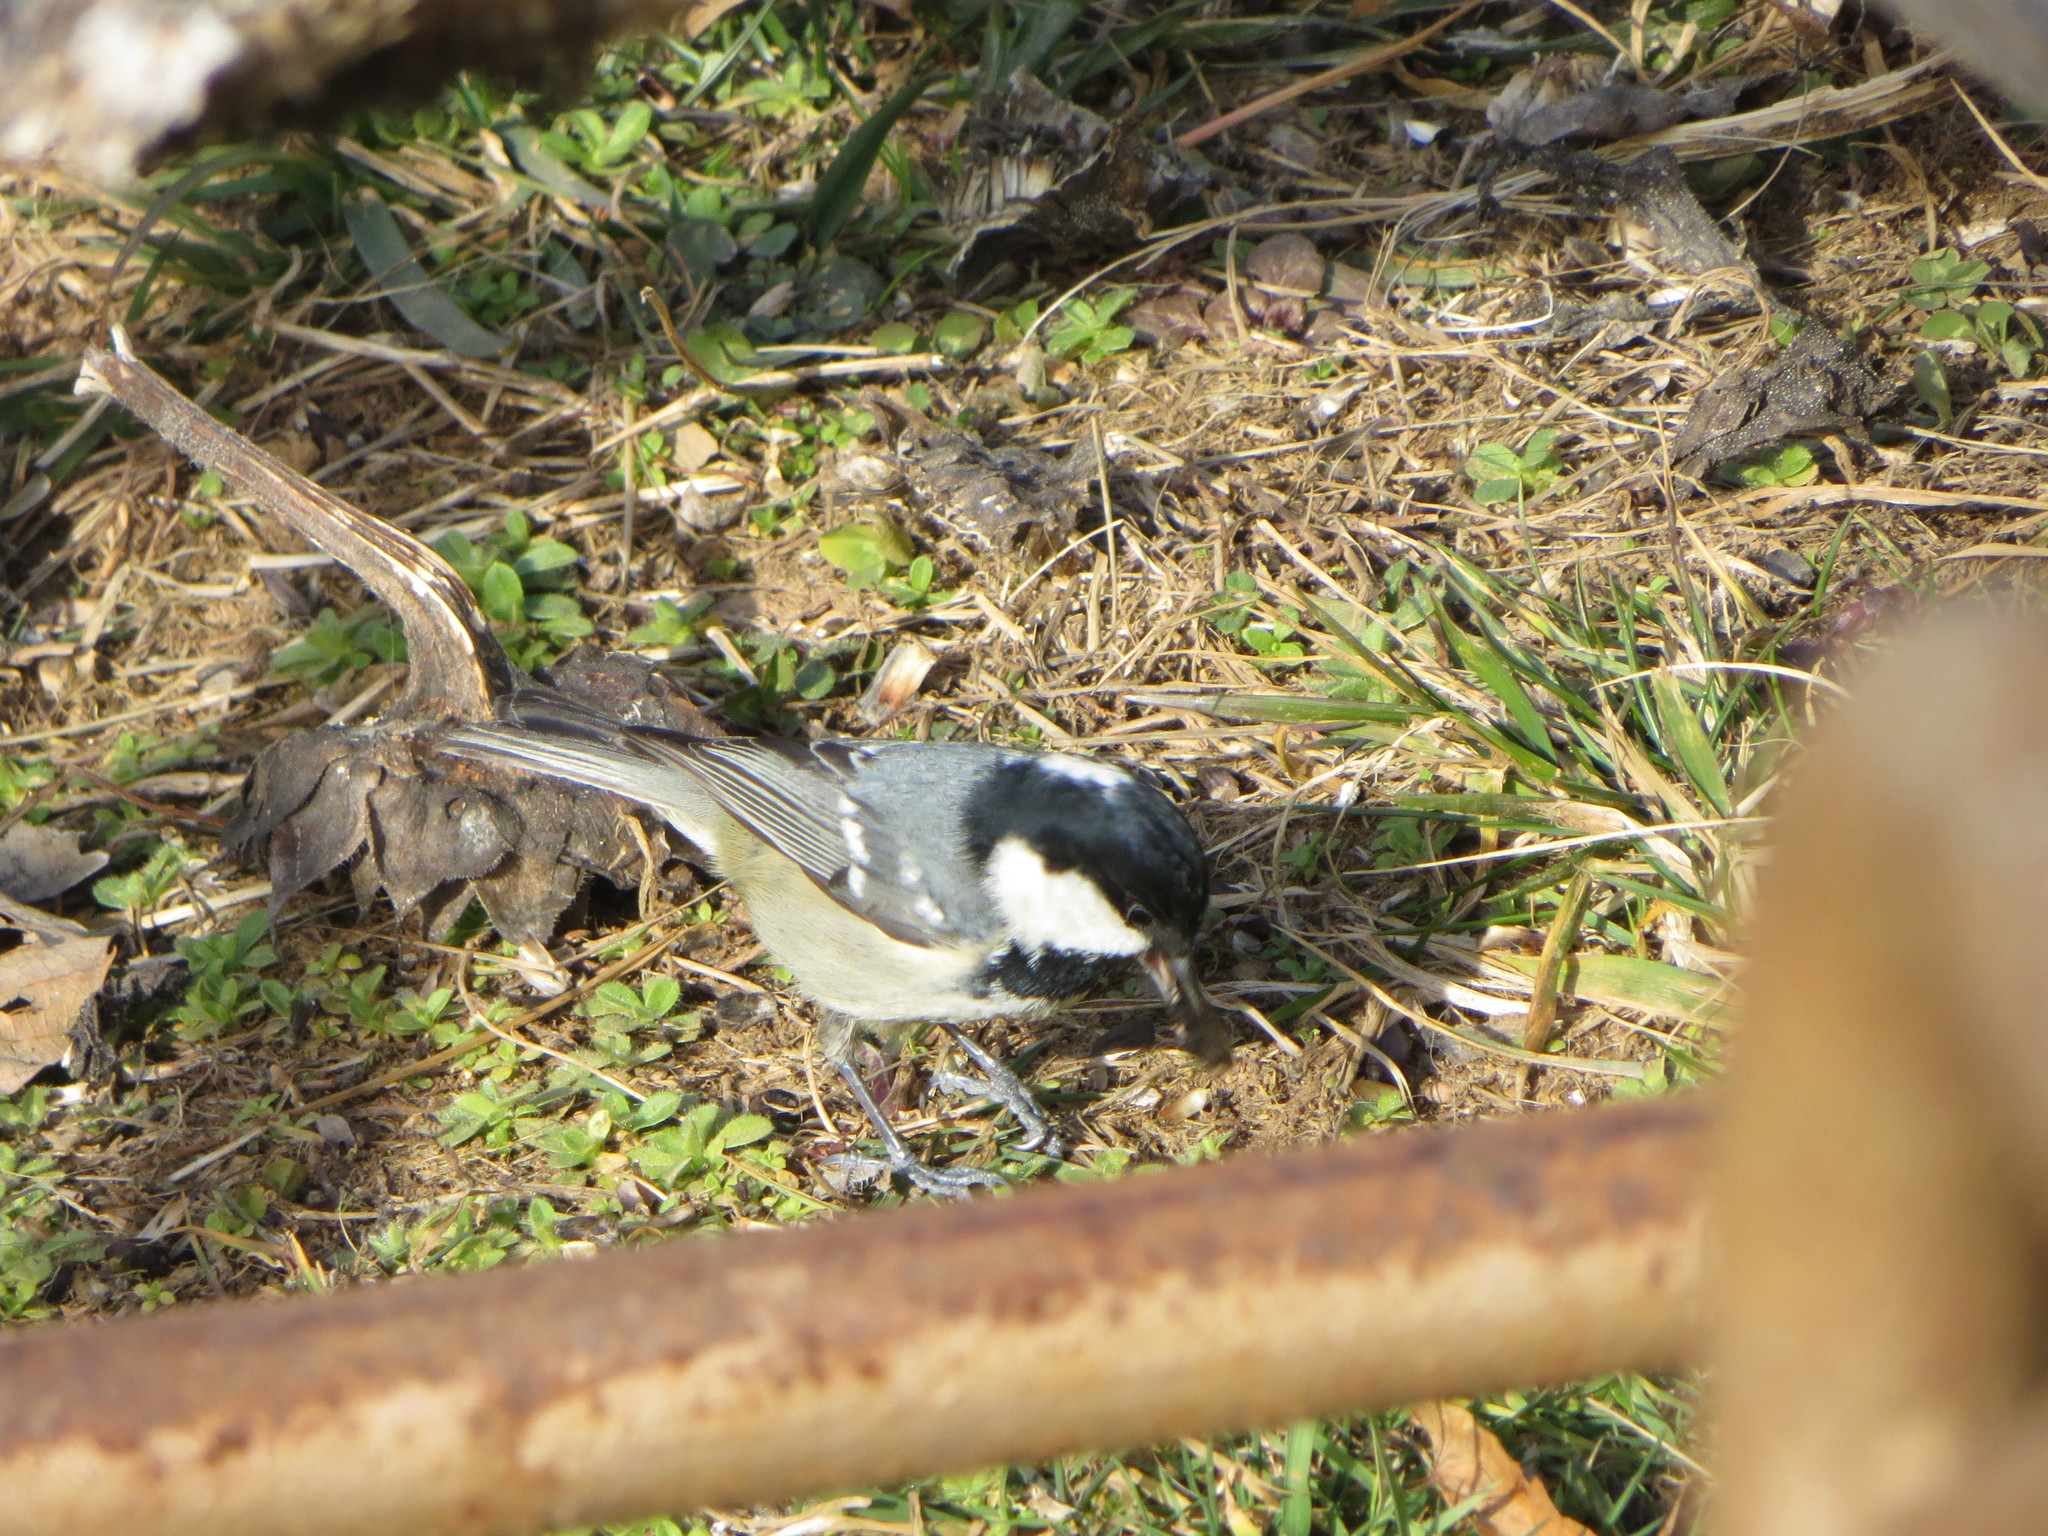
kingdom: Animalia
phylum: Chordata
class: Aves
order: Passeriformes
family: Paridae
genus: Periparus
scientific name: Periparus ater
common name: Coal tit
